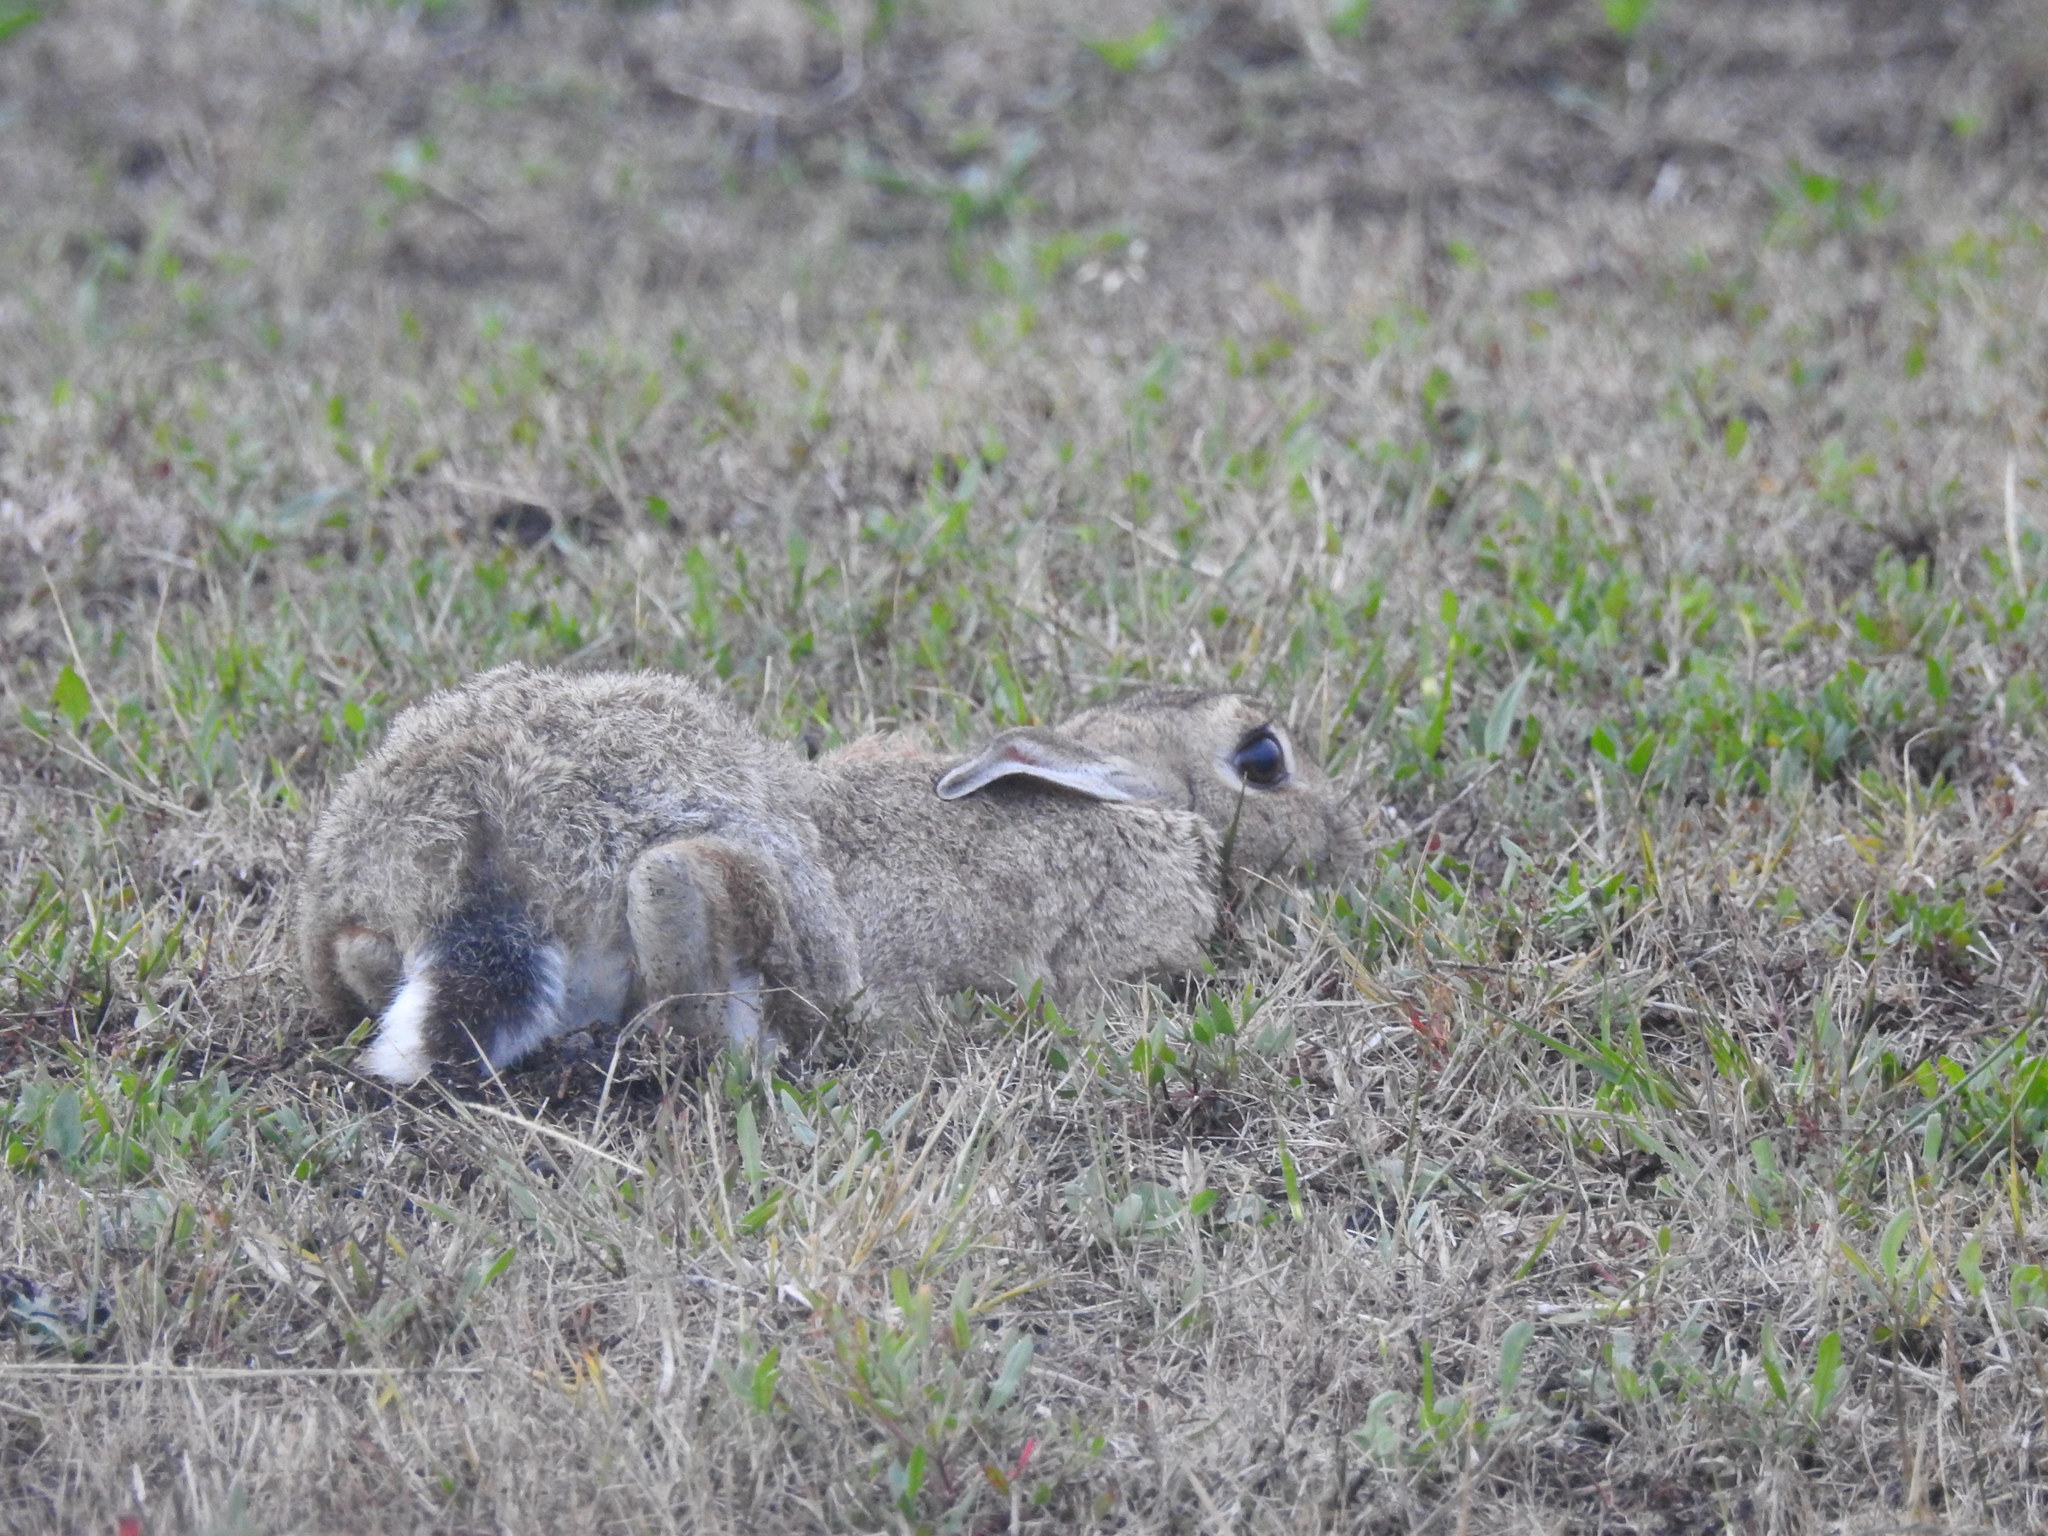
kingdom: Animalia
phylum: Chordata
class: Mammalia
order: Lagomorpha
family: Leporidae
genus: Oryctolagus
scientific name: Oryctolagus cuniculus
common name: European rabbit
